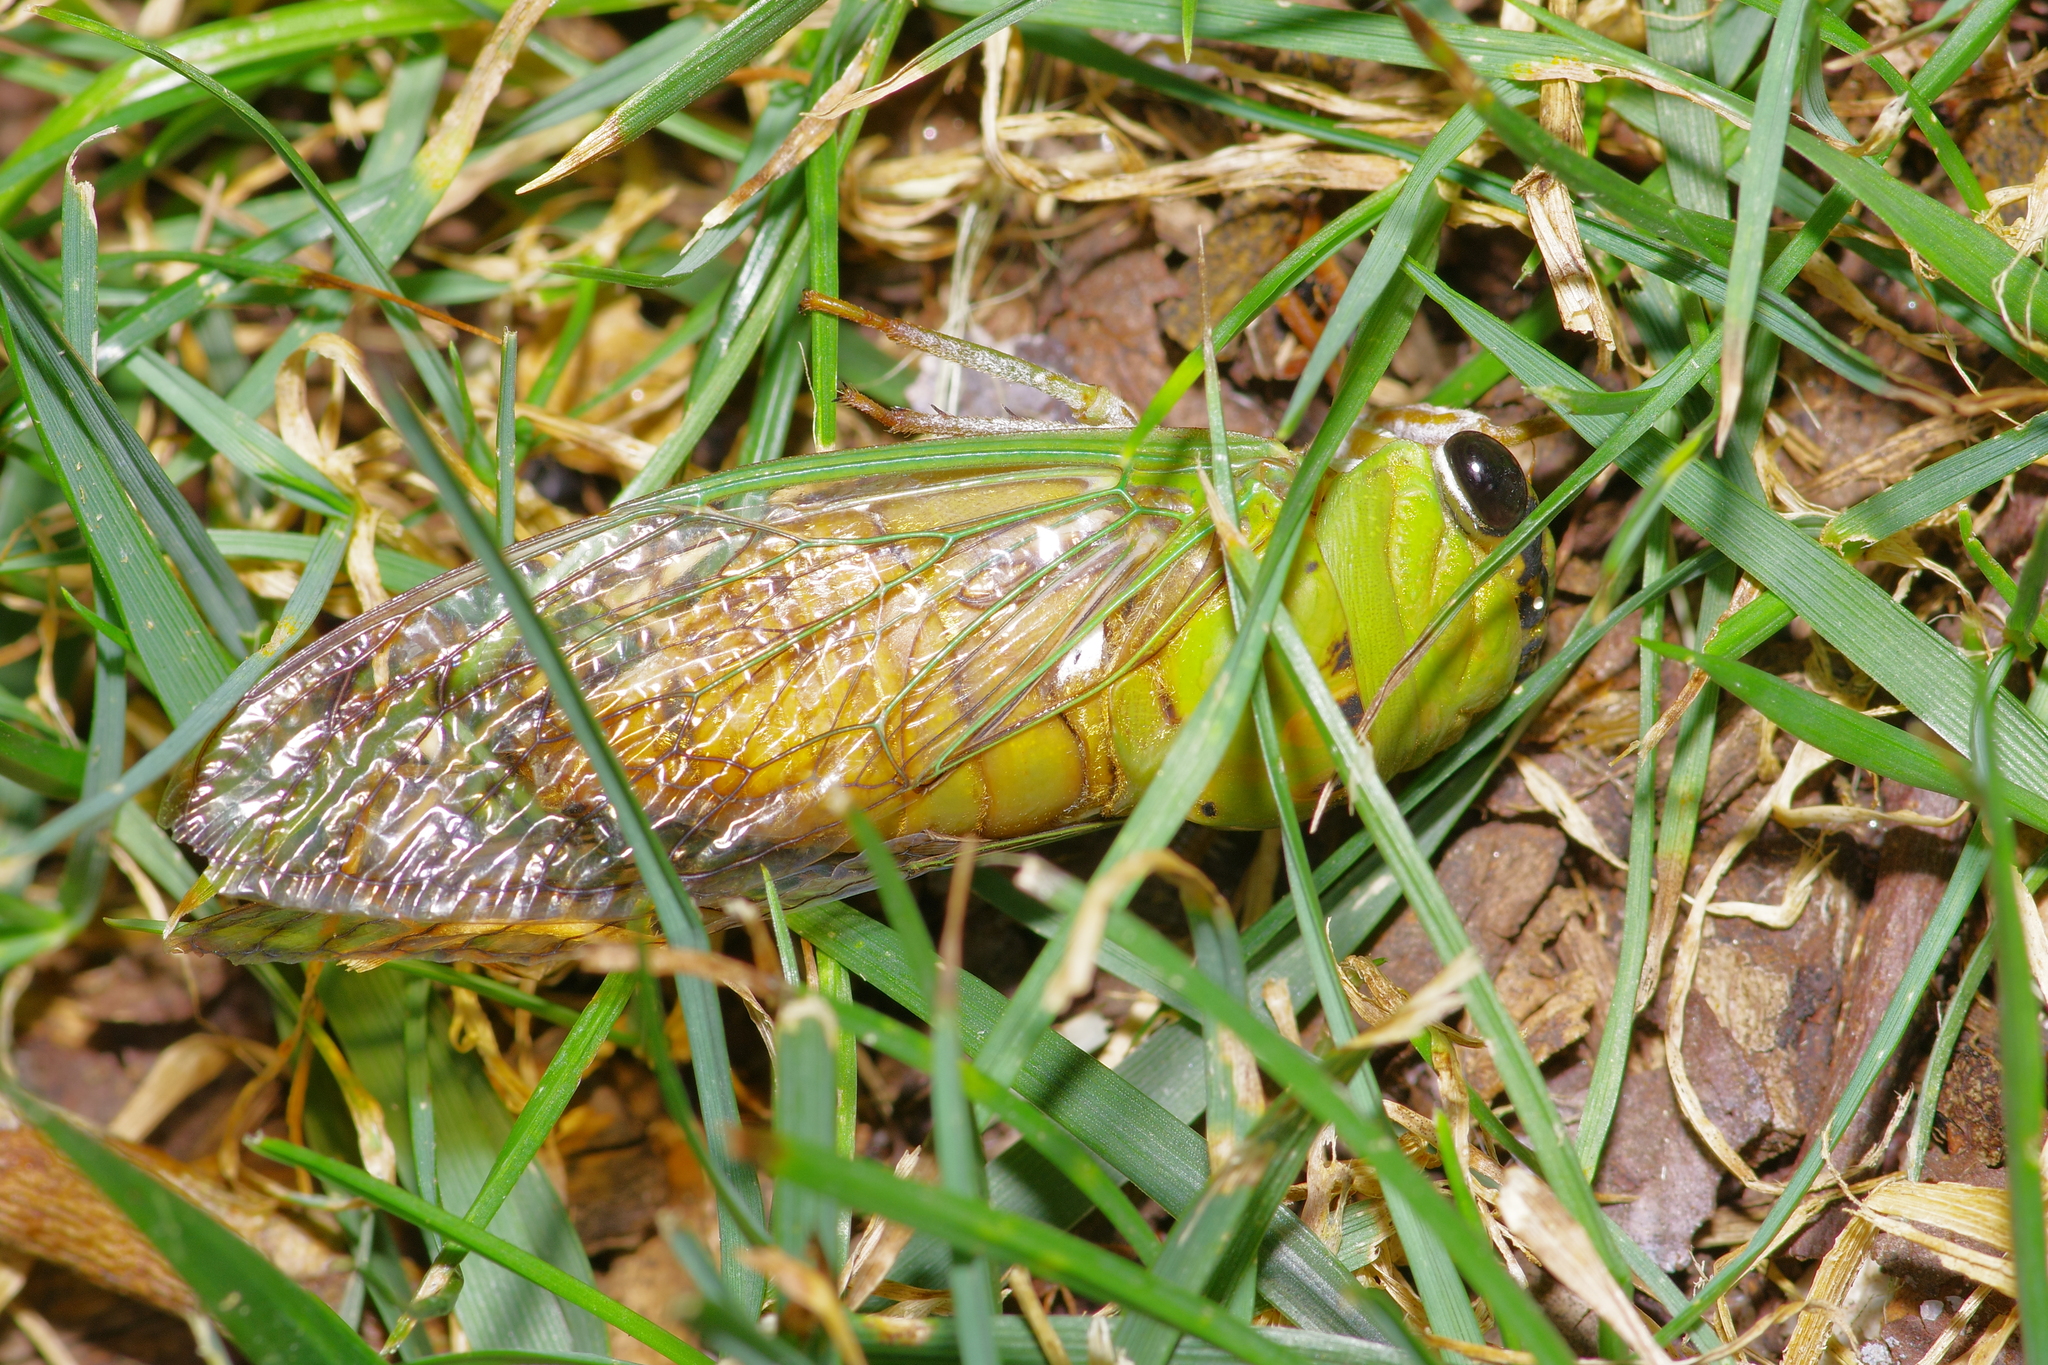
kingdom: Animalia
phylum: Arthropoda
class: Insecta
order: Hemiptera
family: Cicadidae
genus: Neotibicen
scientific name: Neotibicen superbus
